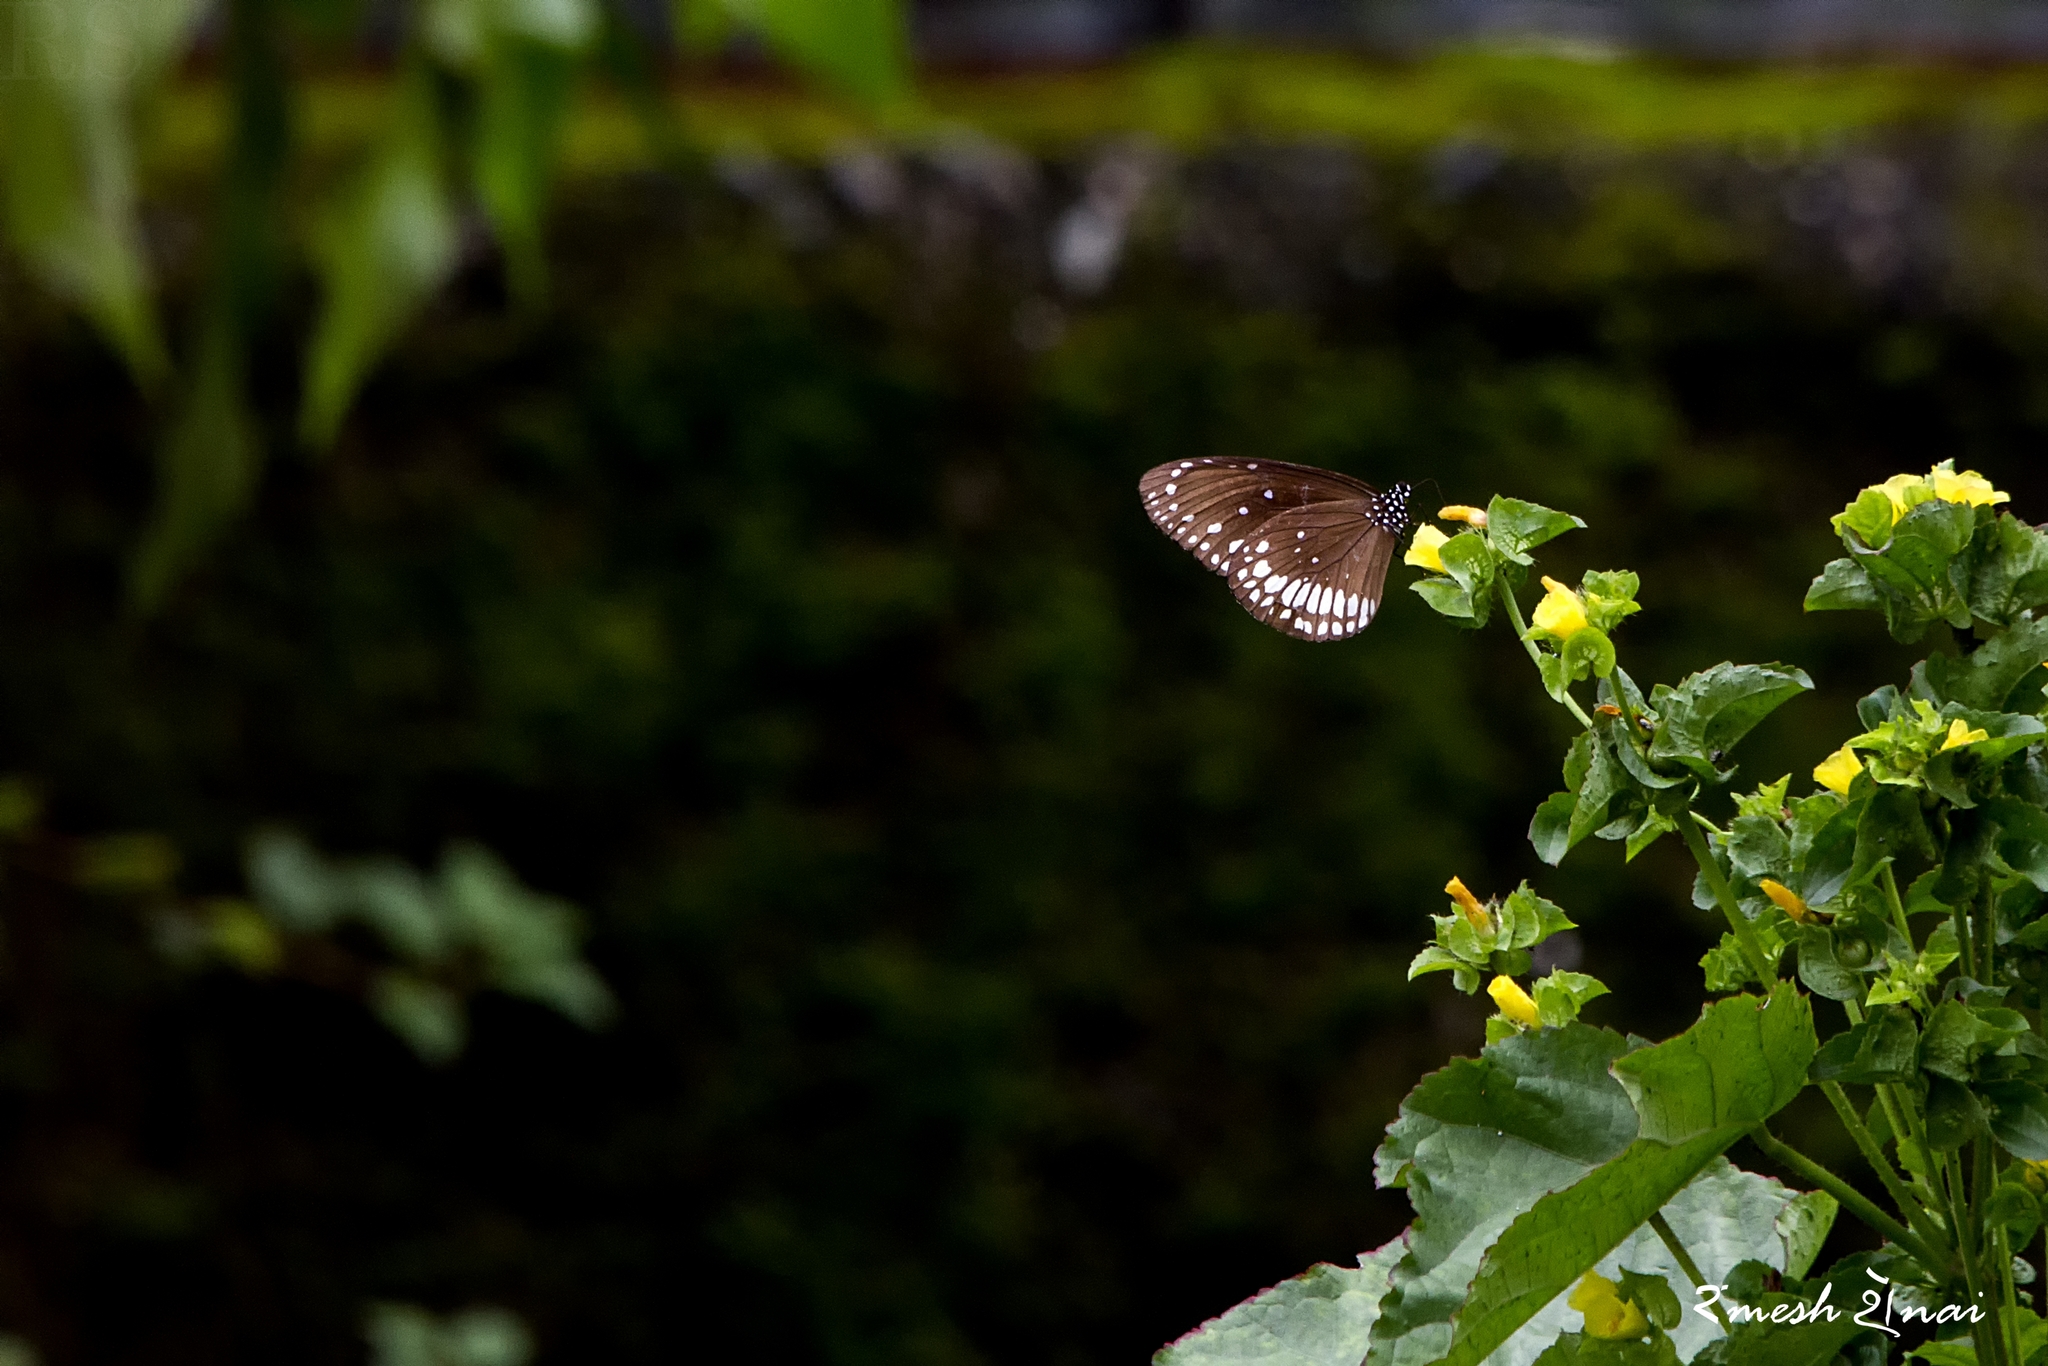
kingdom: Animalia
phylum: Arthropoda
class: Insecta
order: Lepidoptera
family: Nymphalidae
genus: Euploea
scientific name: Euploea core
